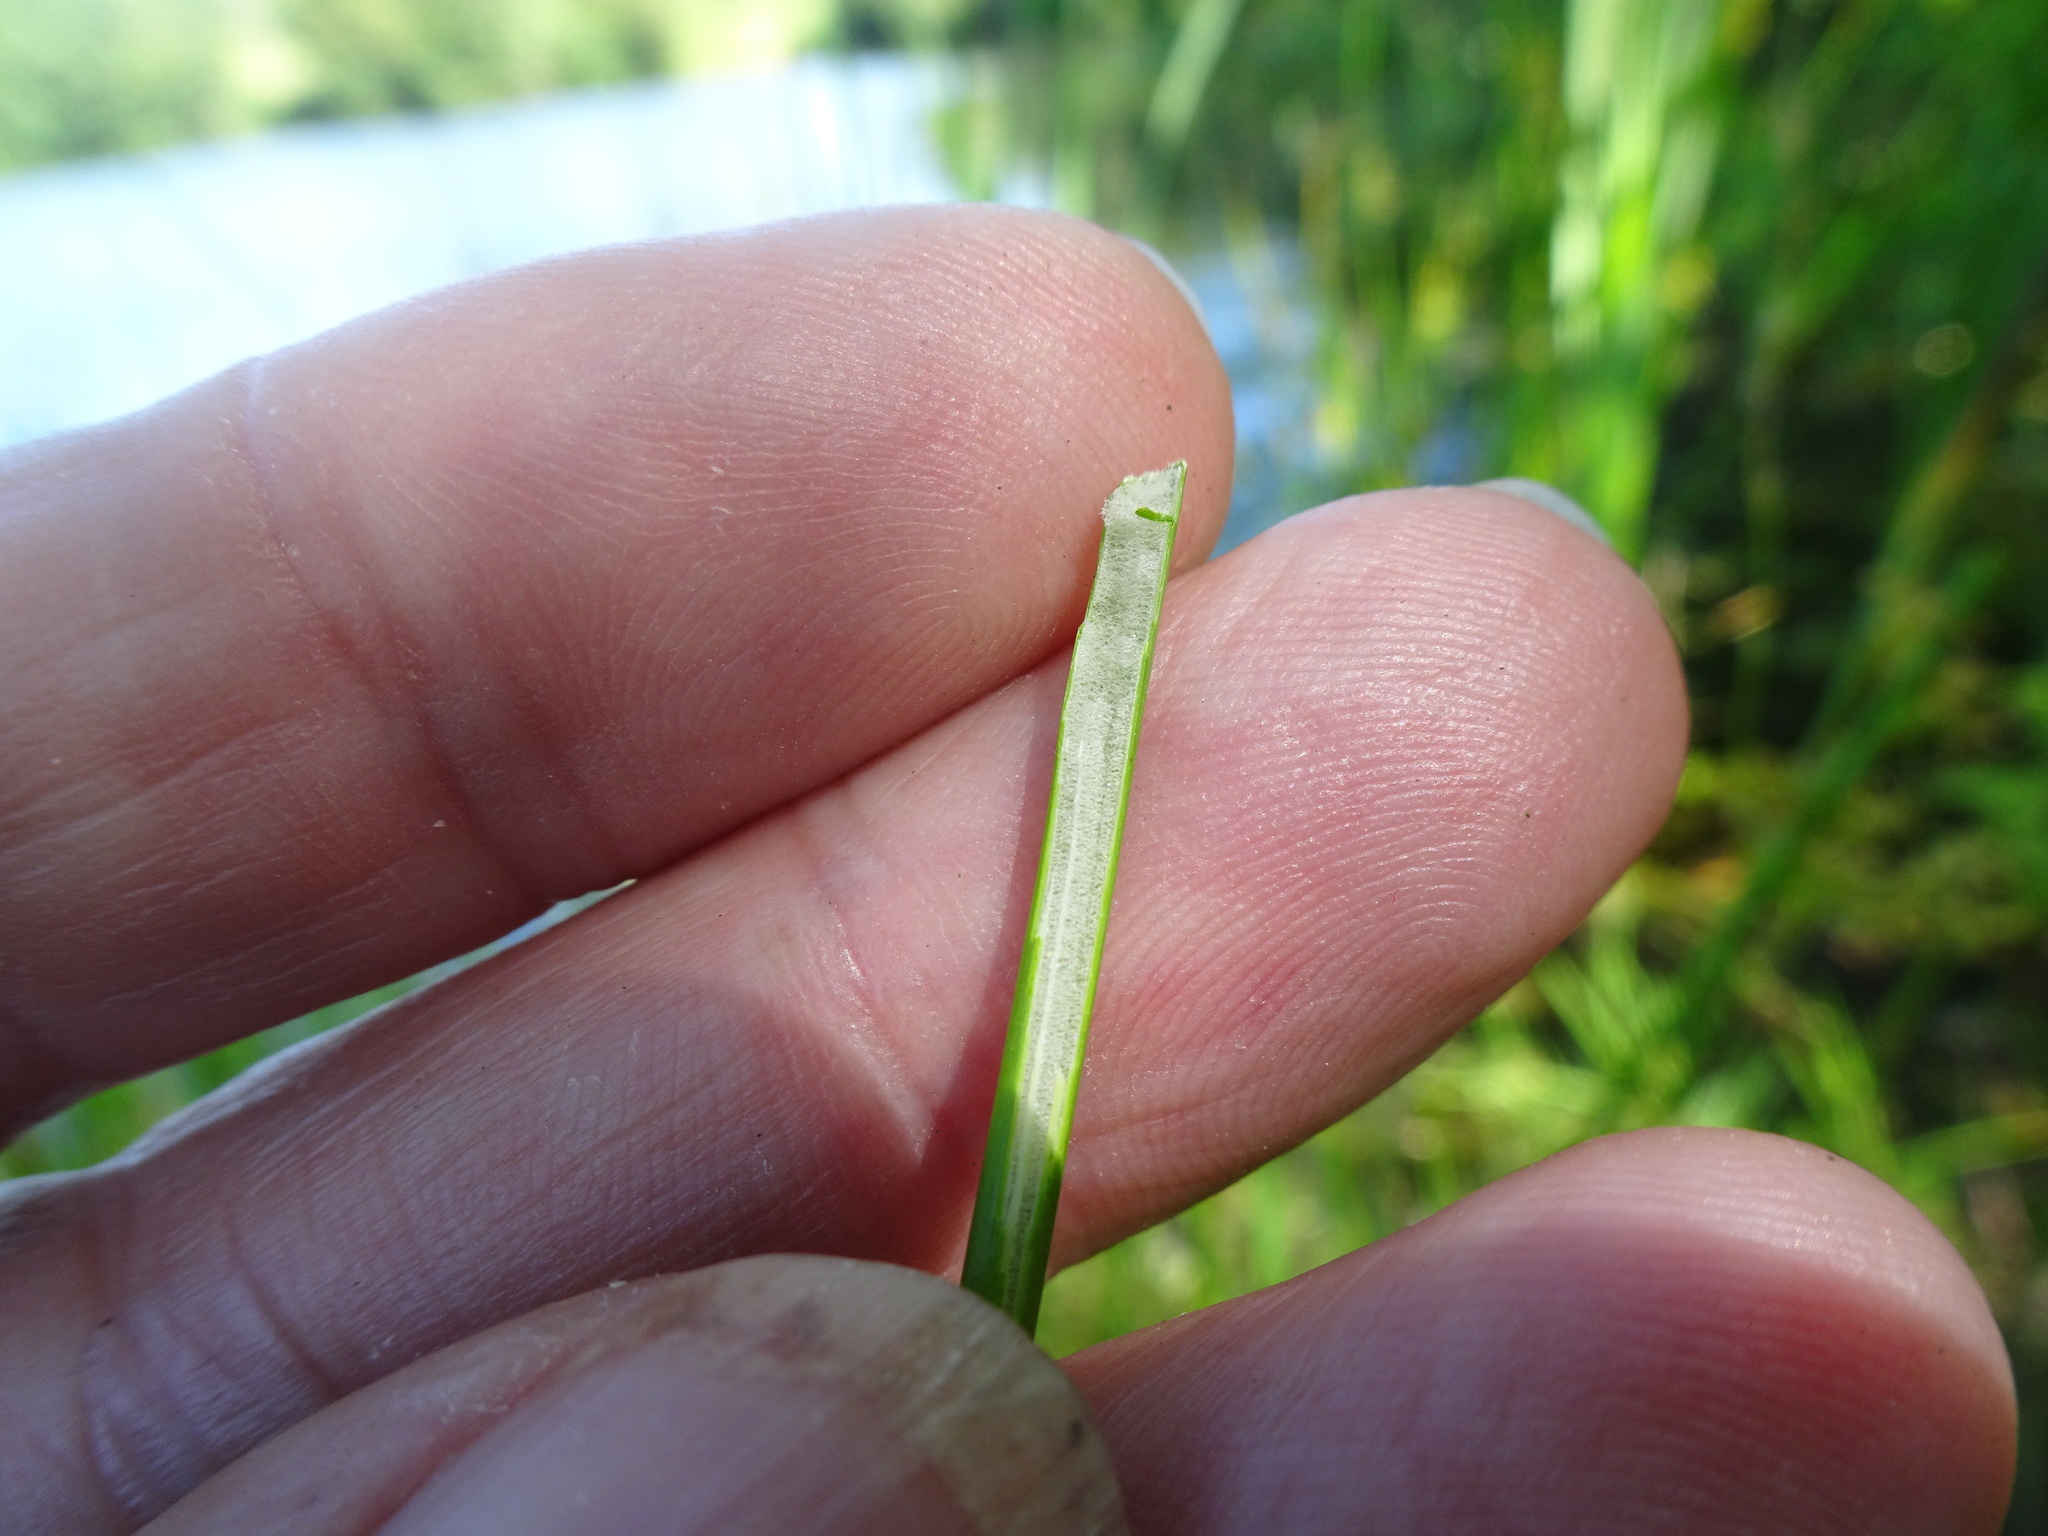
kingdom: Plantae
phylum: Tracheophyta
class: Liliopsida
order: Poales
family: Juncaceae
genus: Juncus
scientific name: Juncus effusus
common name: Soft rush
